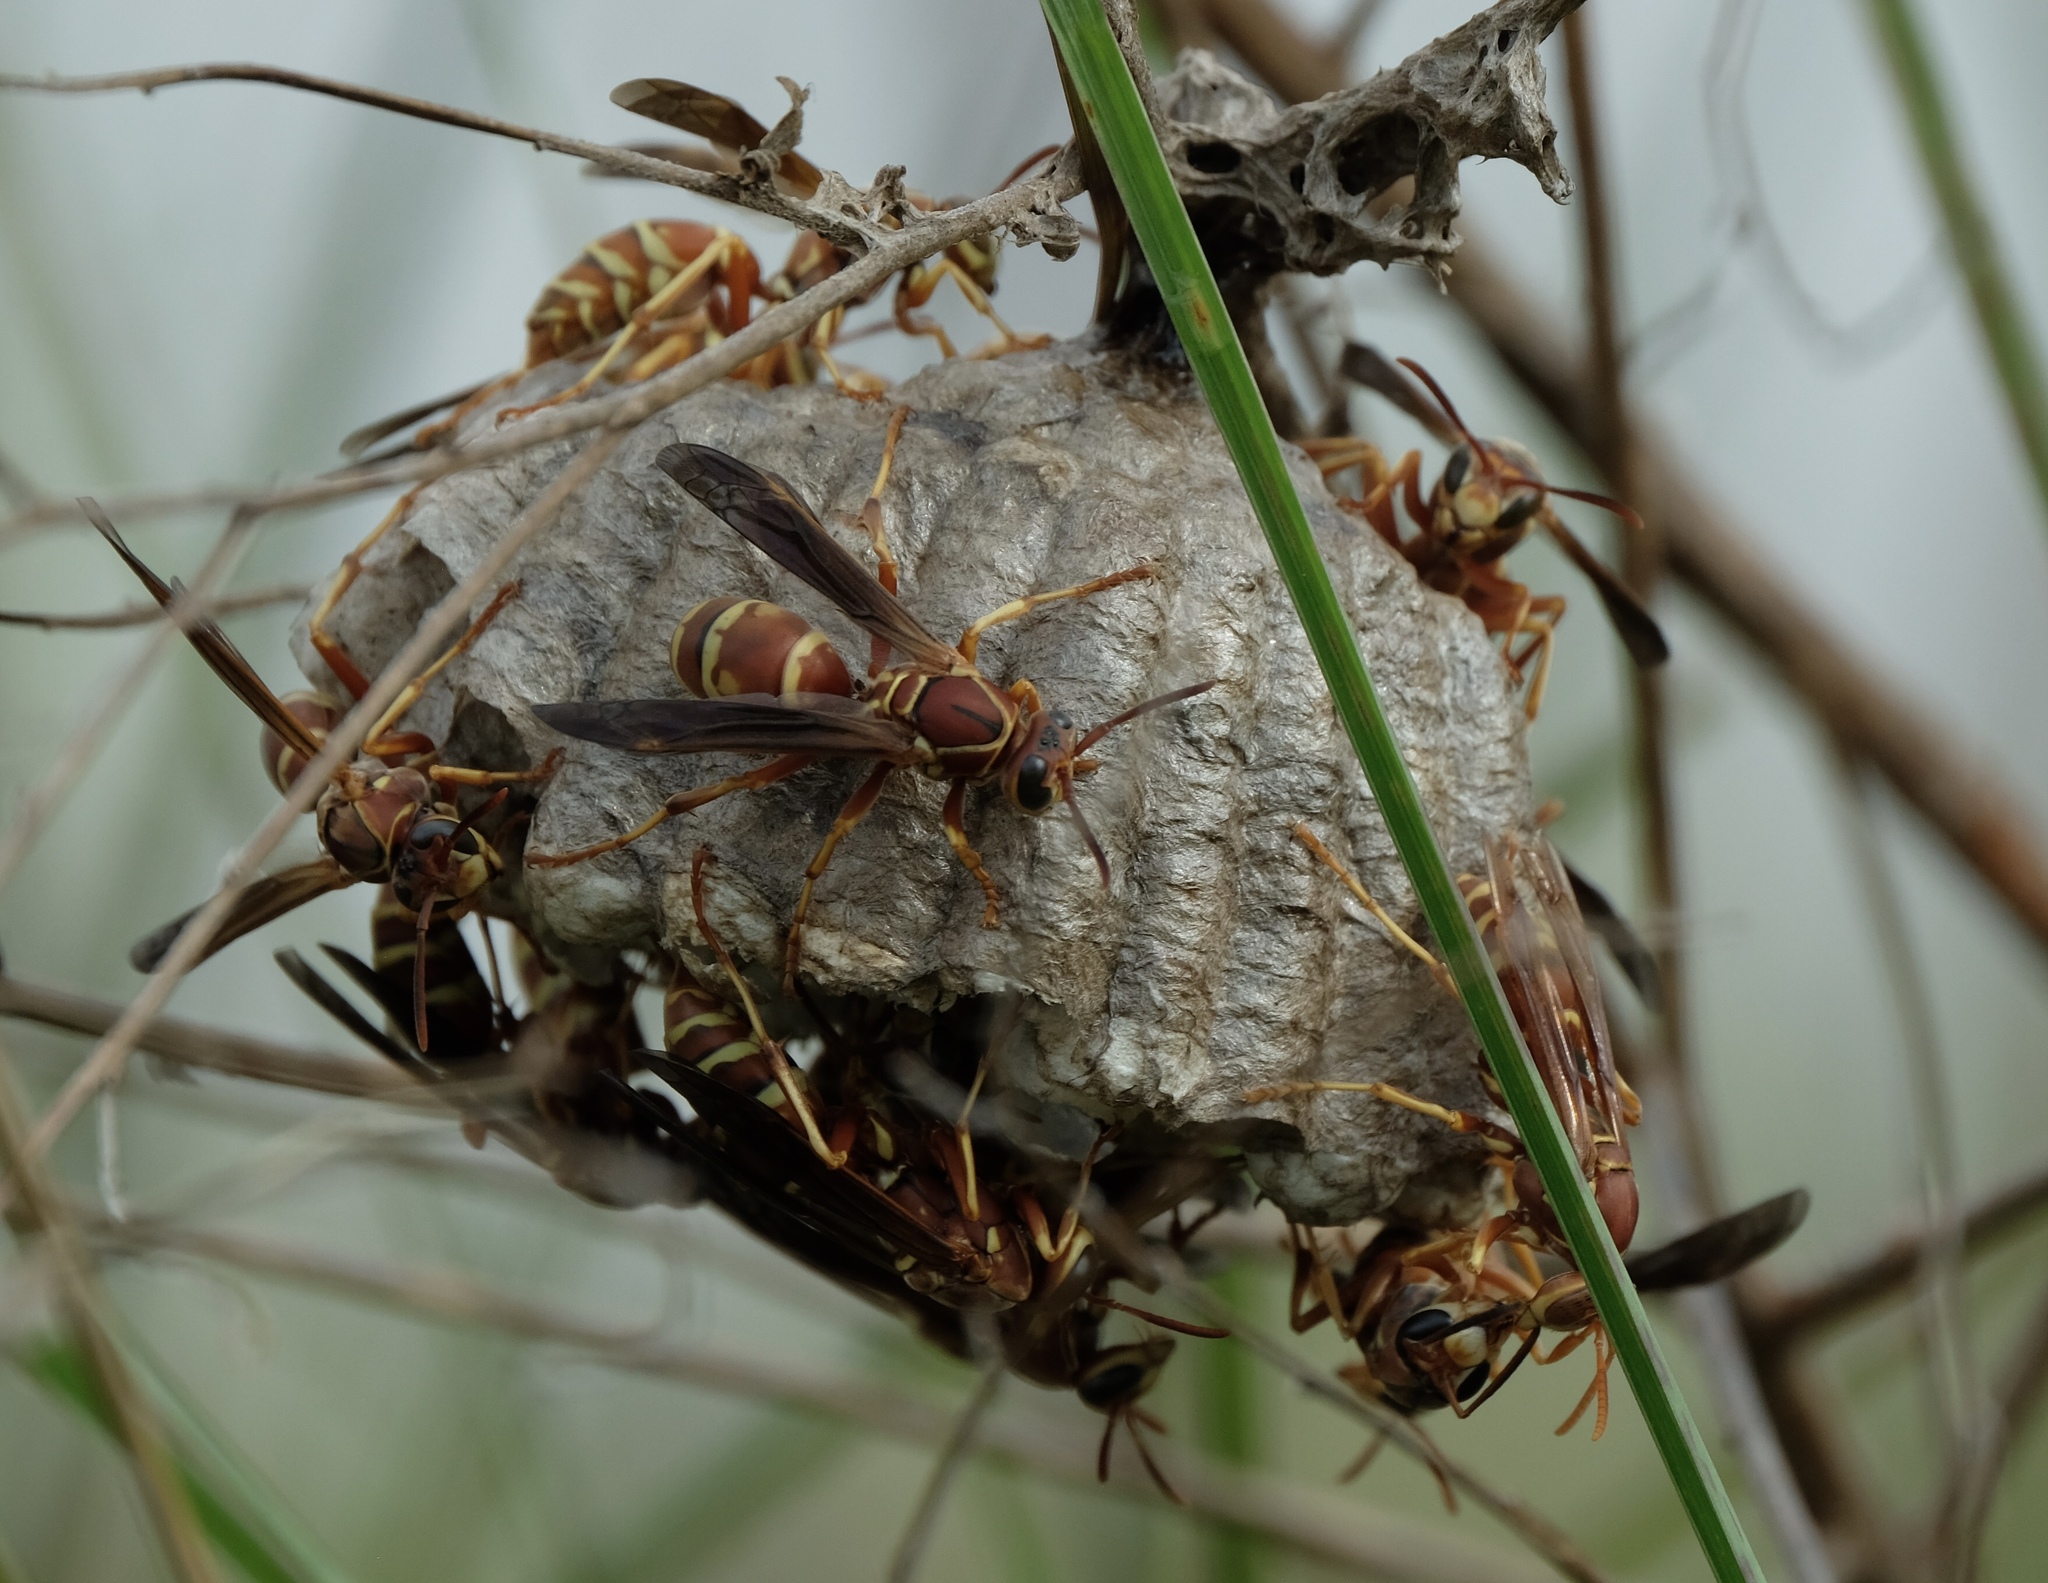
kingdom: Animalia
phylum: Arthropoda
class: Insecta
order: Hymenoptera
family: Eumenidae
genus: Polistes
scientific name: Polistes bellicosus
